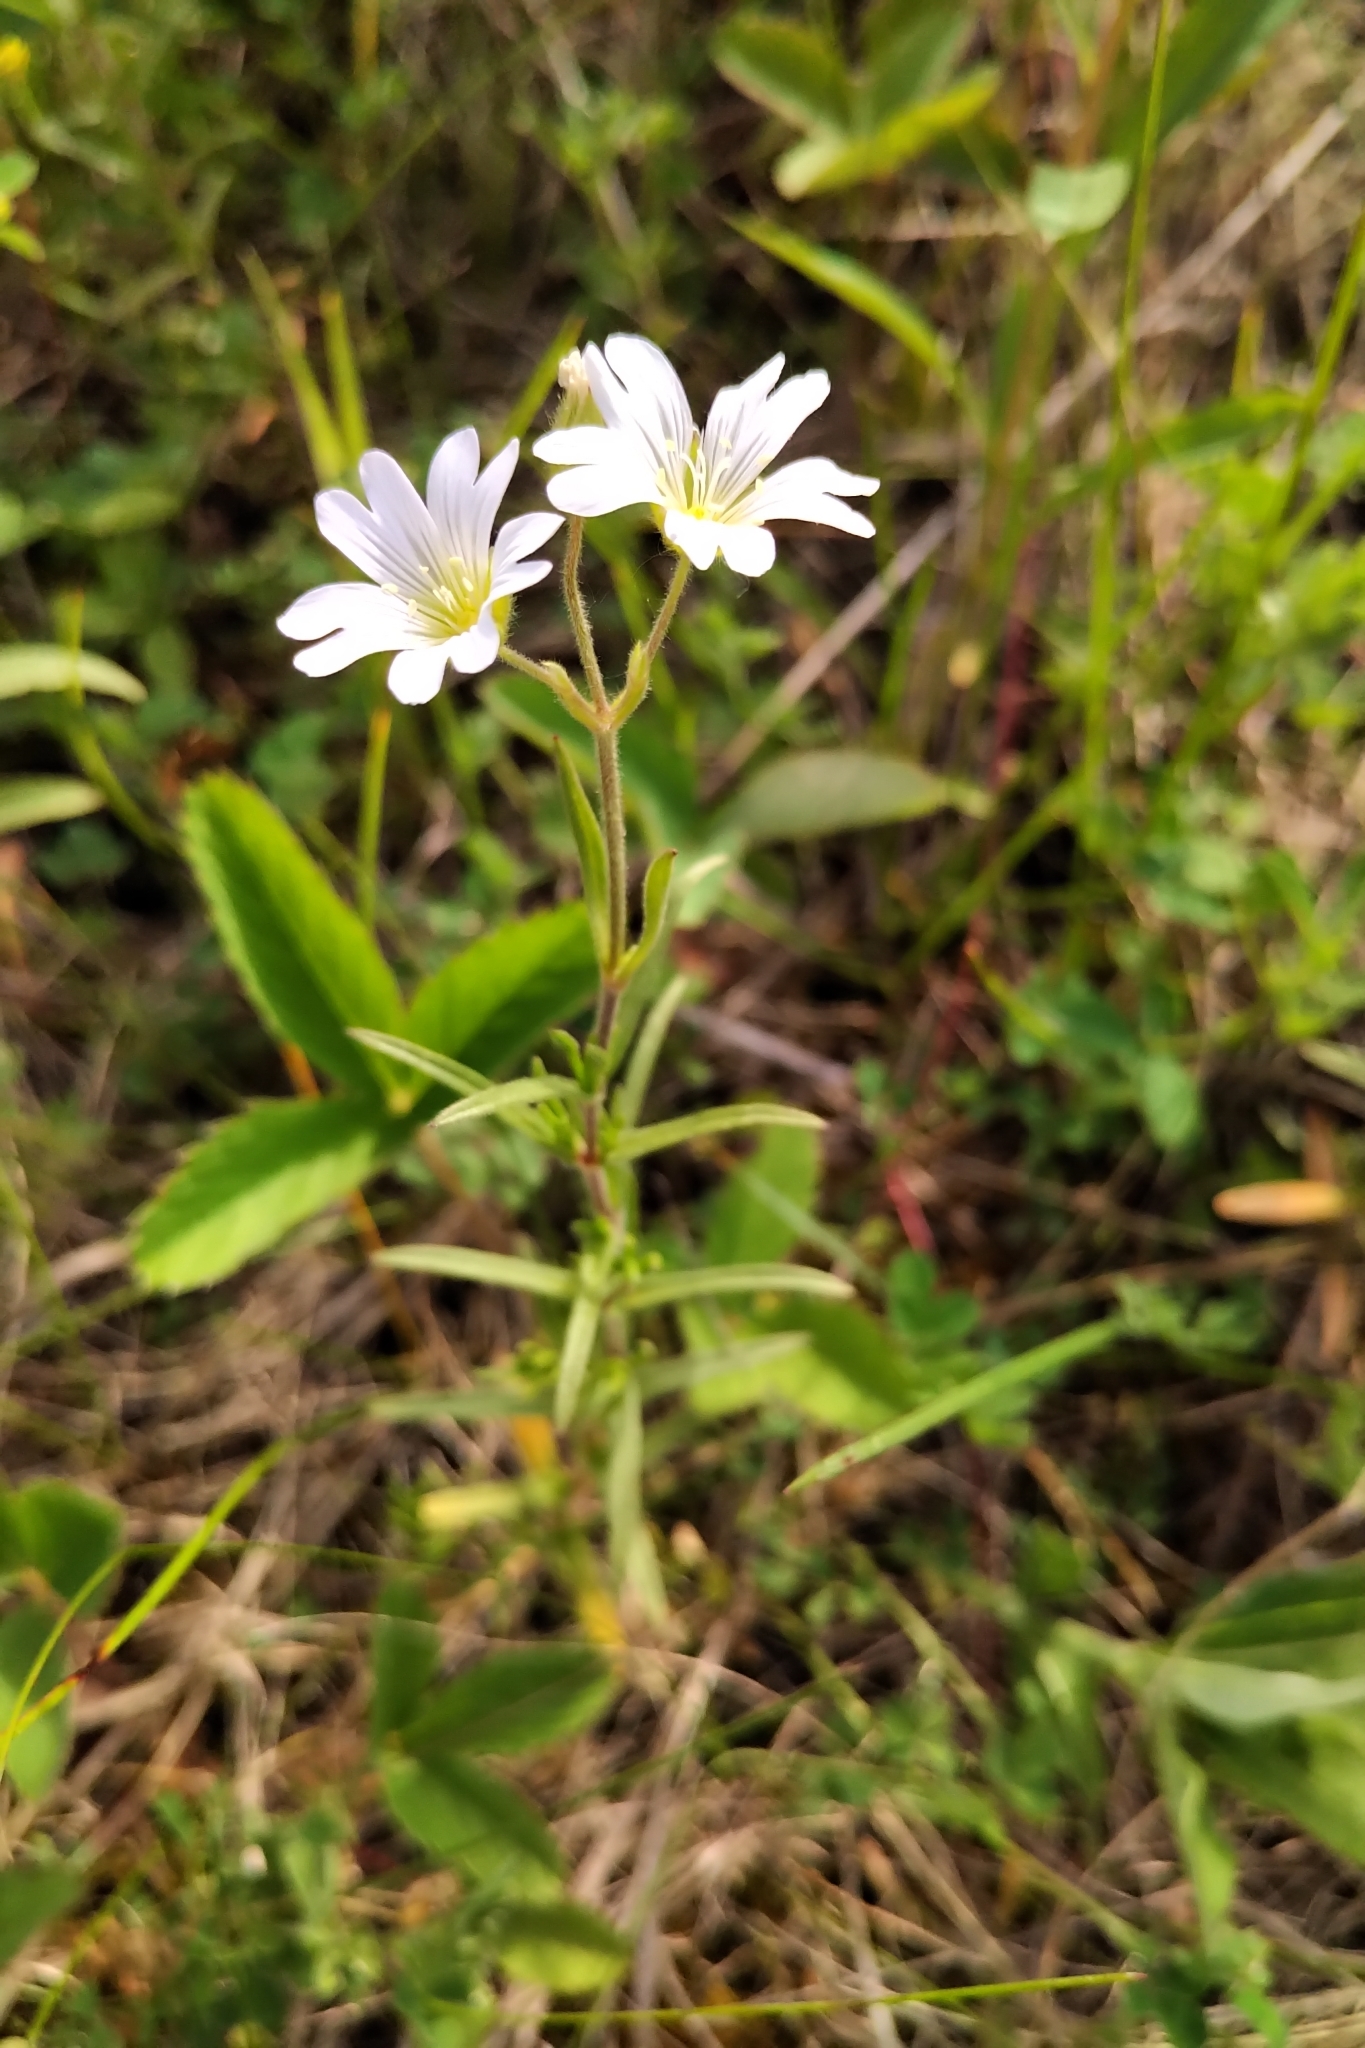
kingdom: Plantae
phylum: Tracheophyta
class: Magnoliopsida
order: Caryophyllales
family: Caryophyllaceae
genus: Cerastium
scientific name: Cerastium arvense
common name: Field mouse-ear
